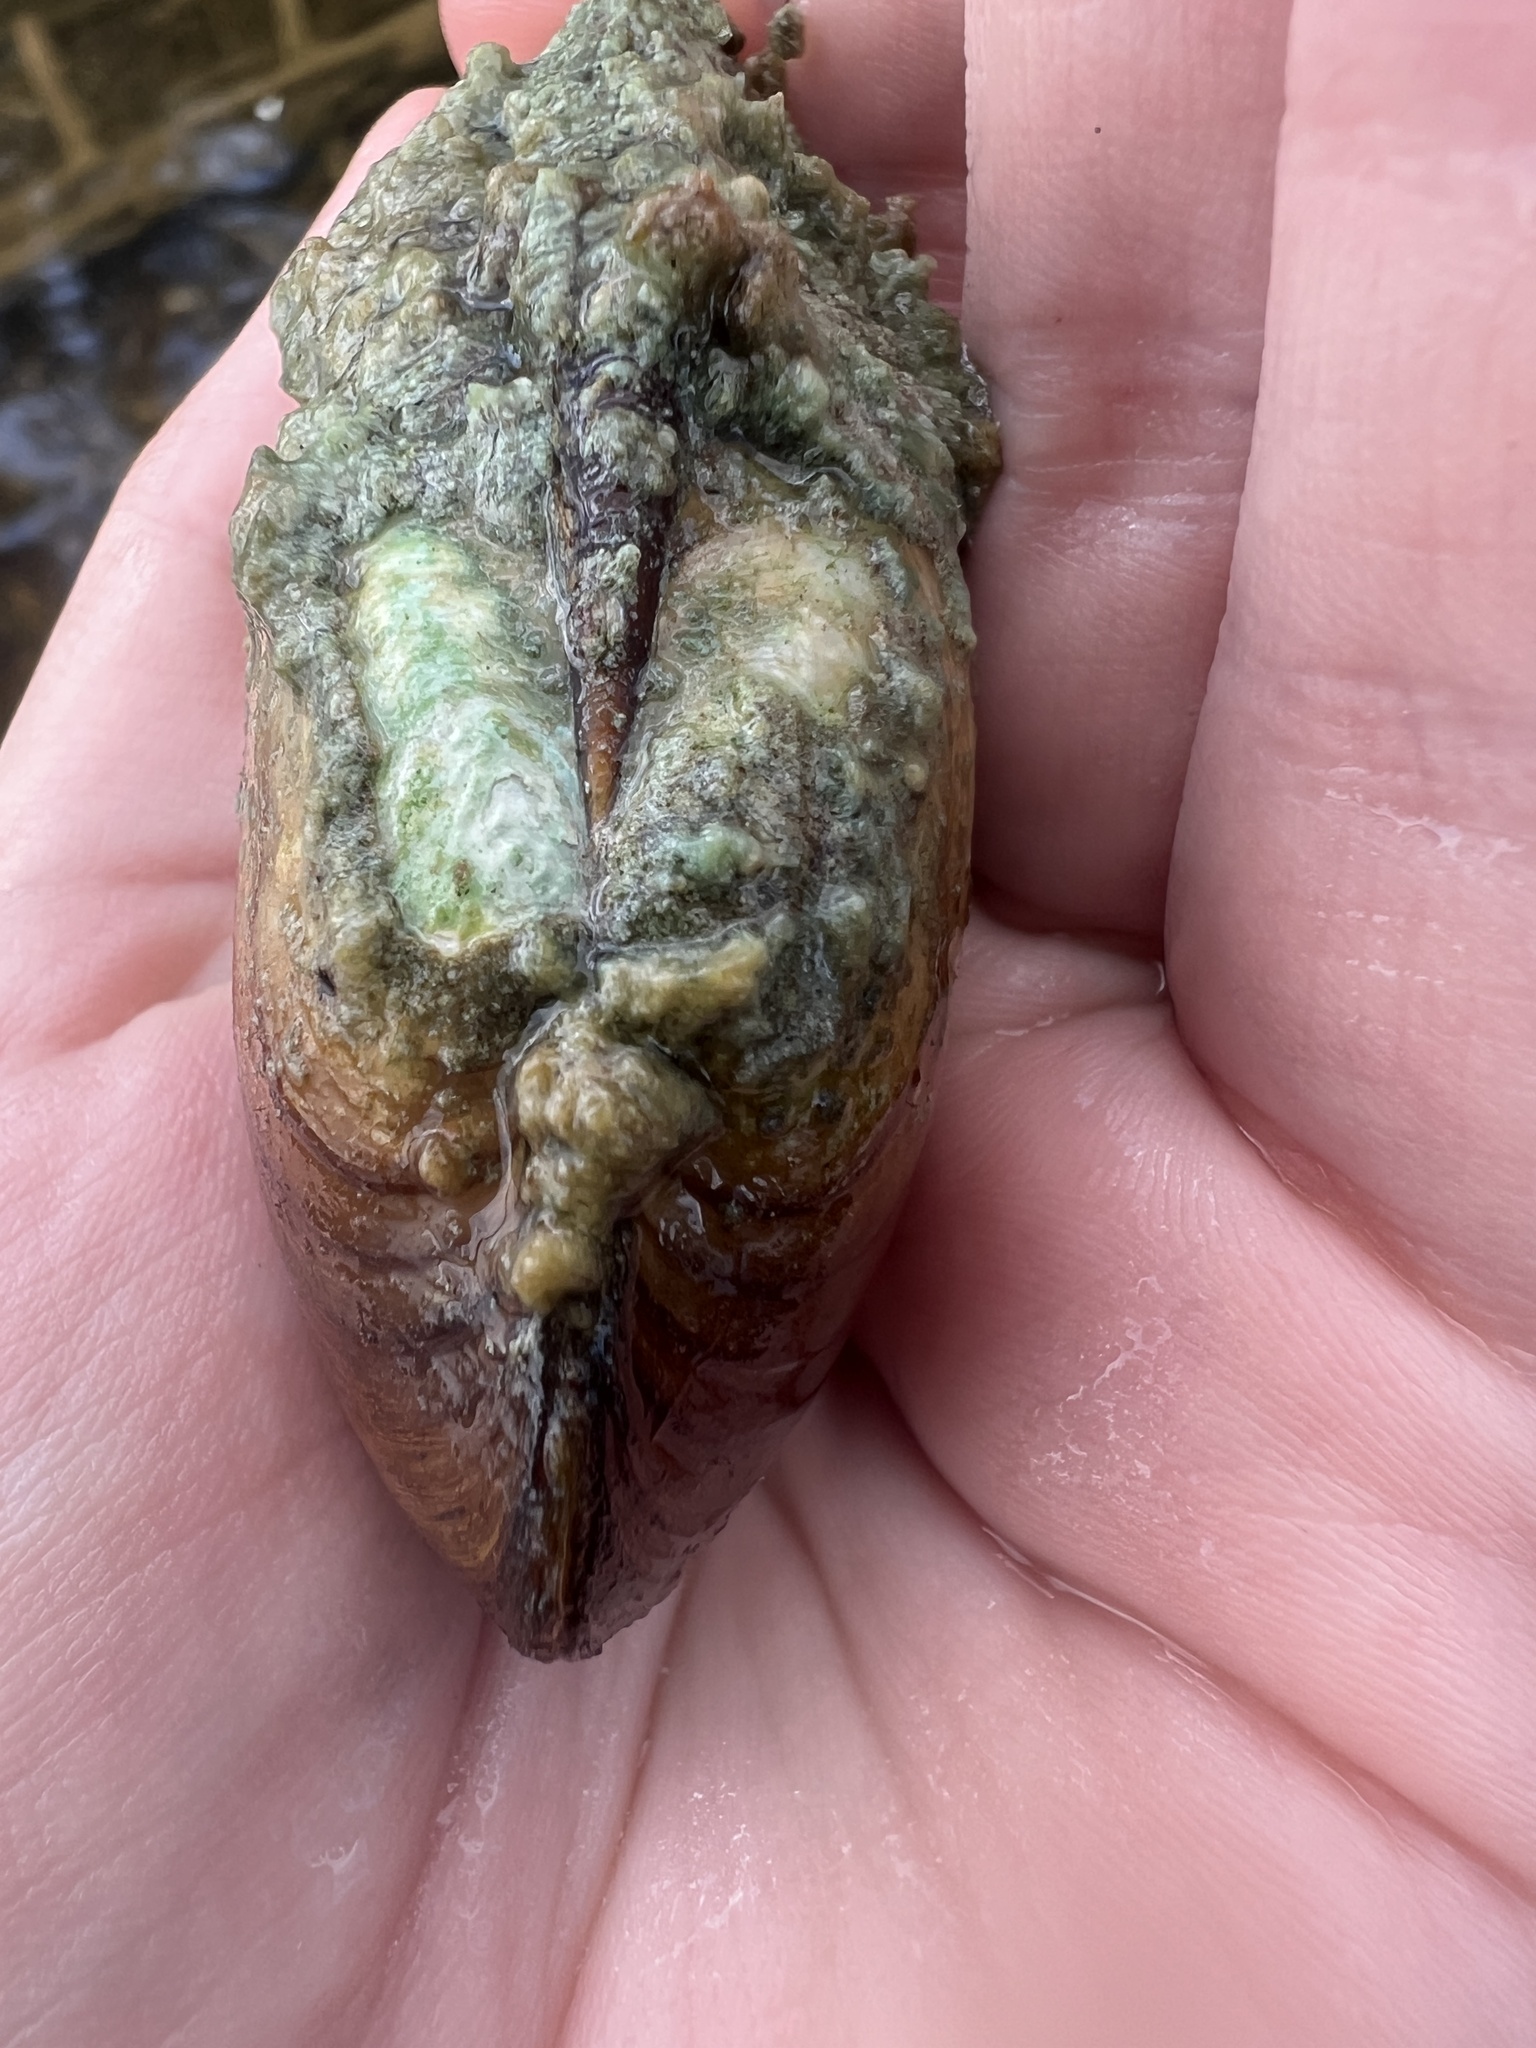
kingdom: Animalia
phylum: Mollusca
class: Bivalvia
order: Unionida
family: Unionidae
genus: Lampsilis
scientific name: Lampsilis siliquoidea
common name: Fatmucket
